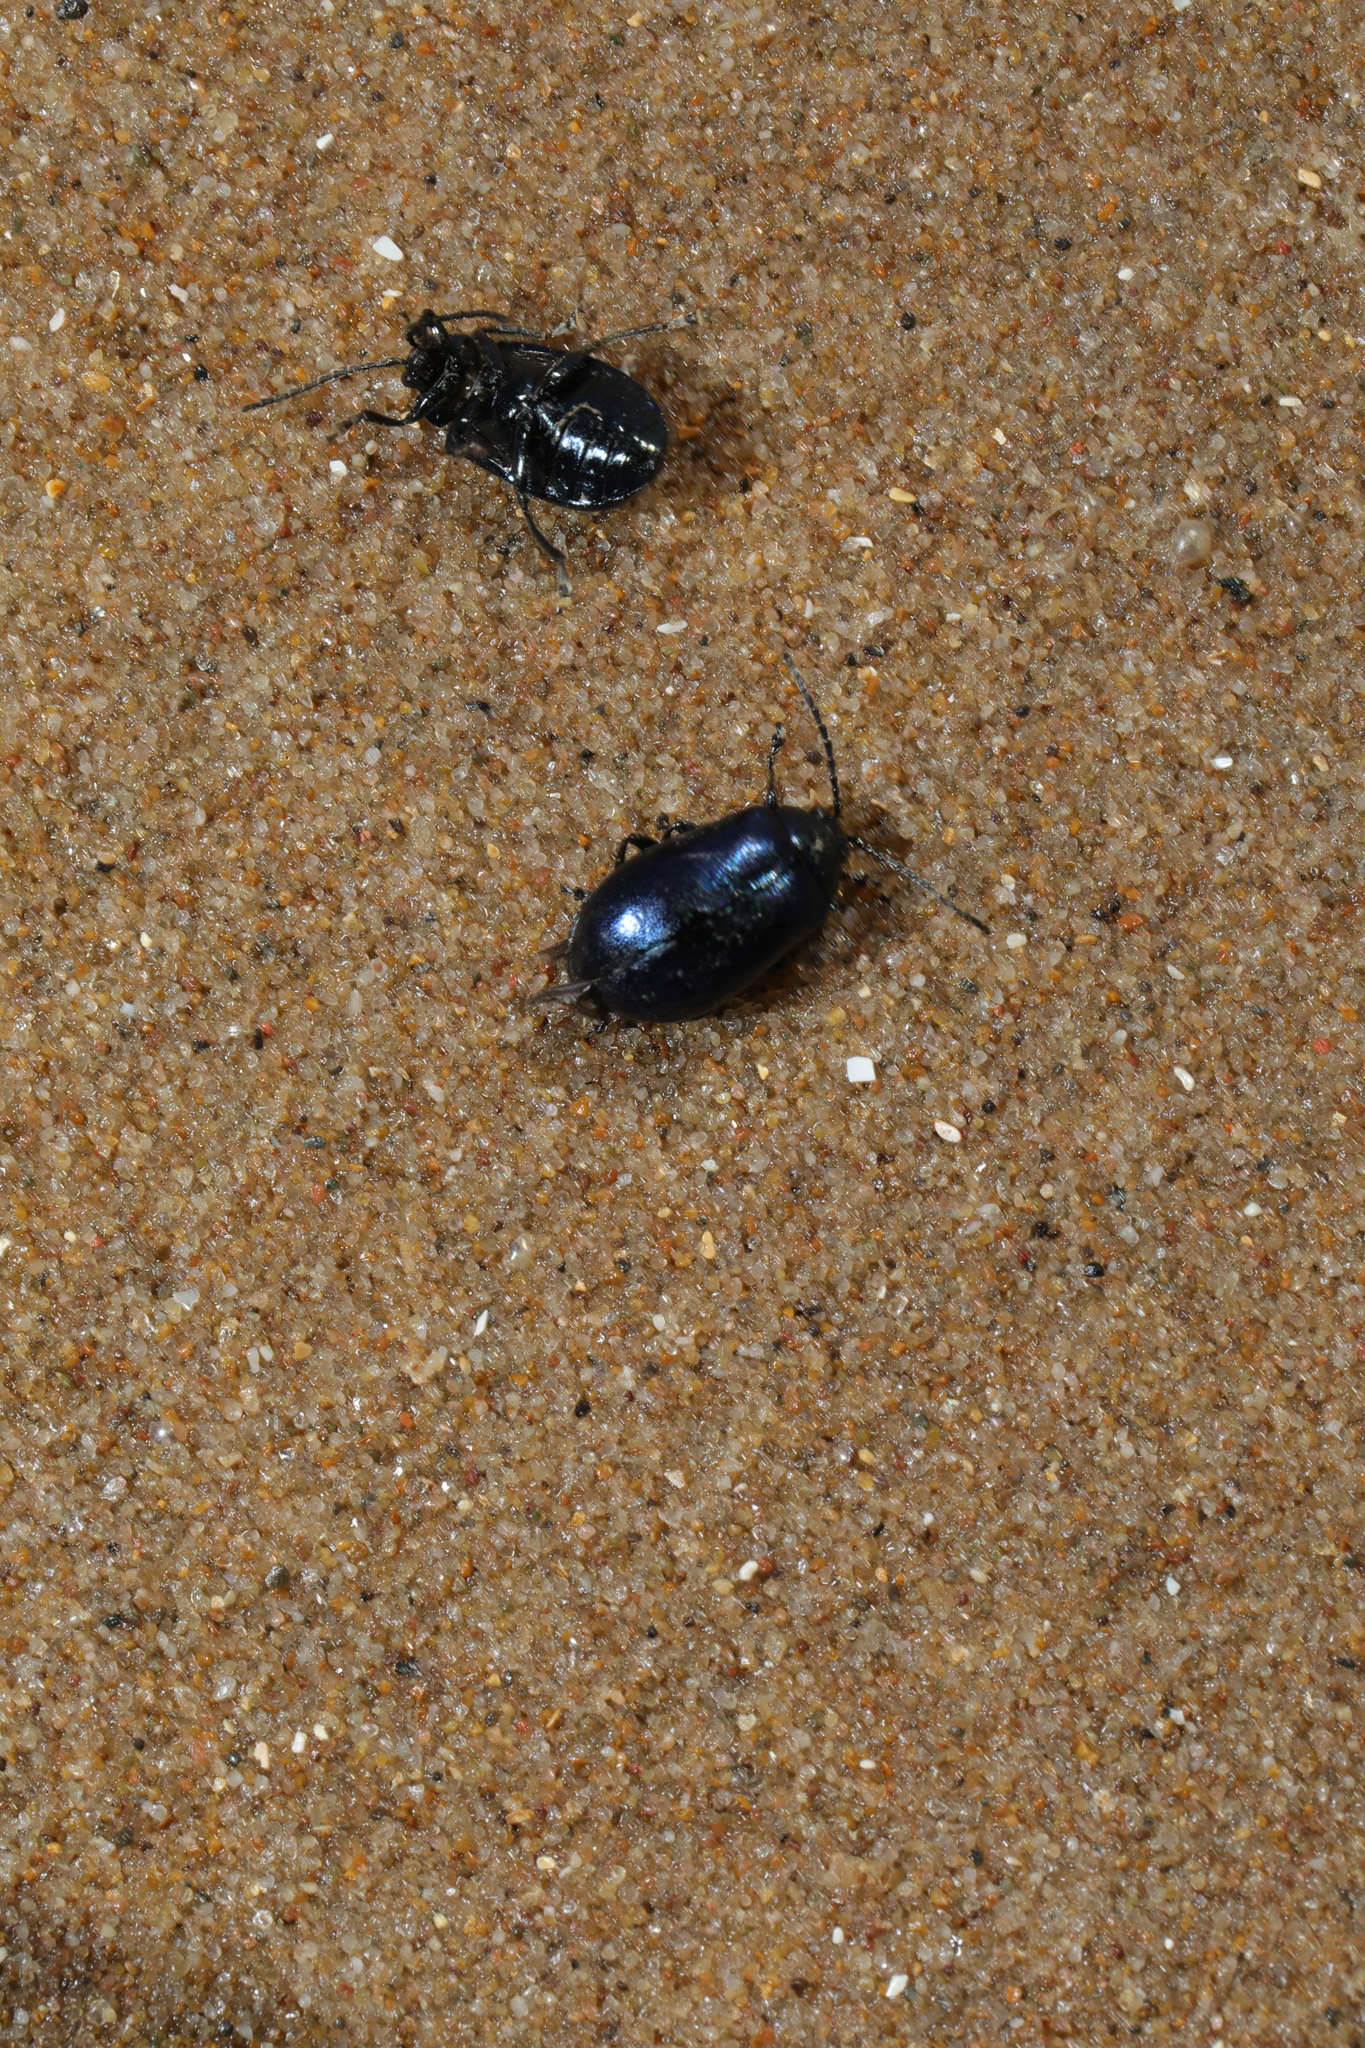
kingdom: Animalia
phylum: Arthropoda
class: Insecta
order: Coleoptera
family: Chrysomelidae
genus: Agelastica
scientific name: Agelastica alni
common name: Alder leaf beetle
